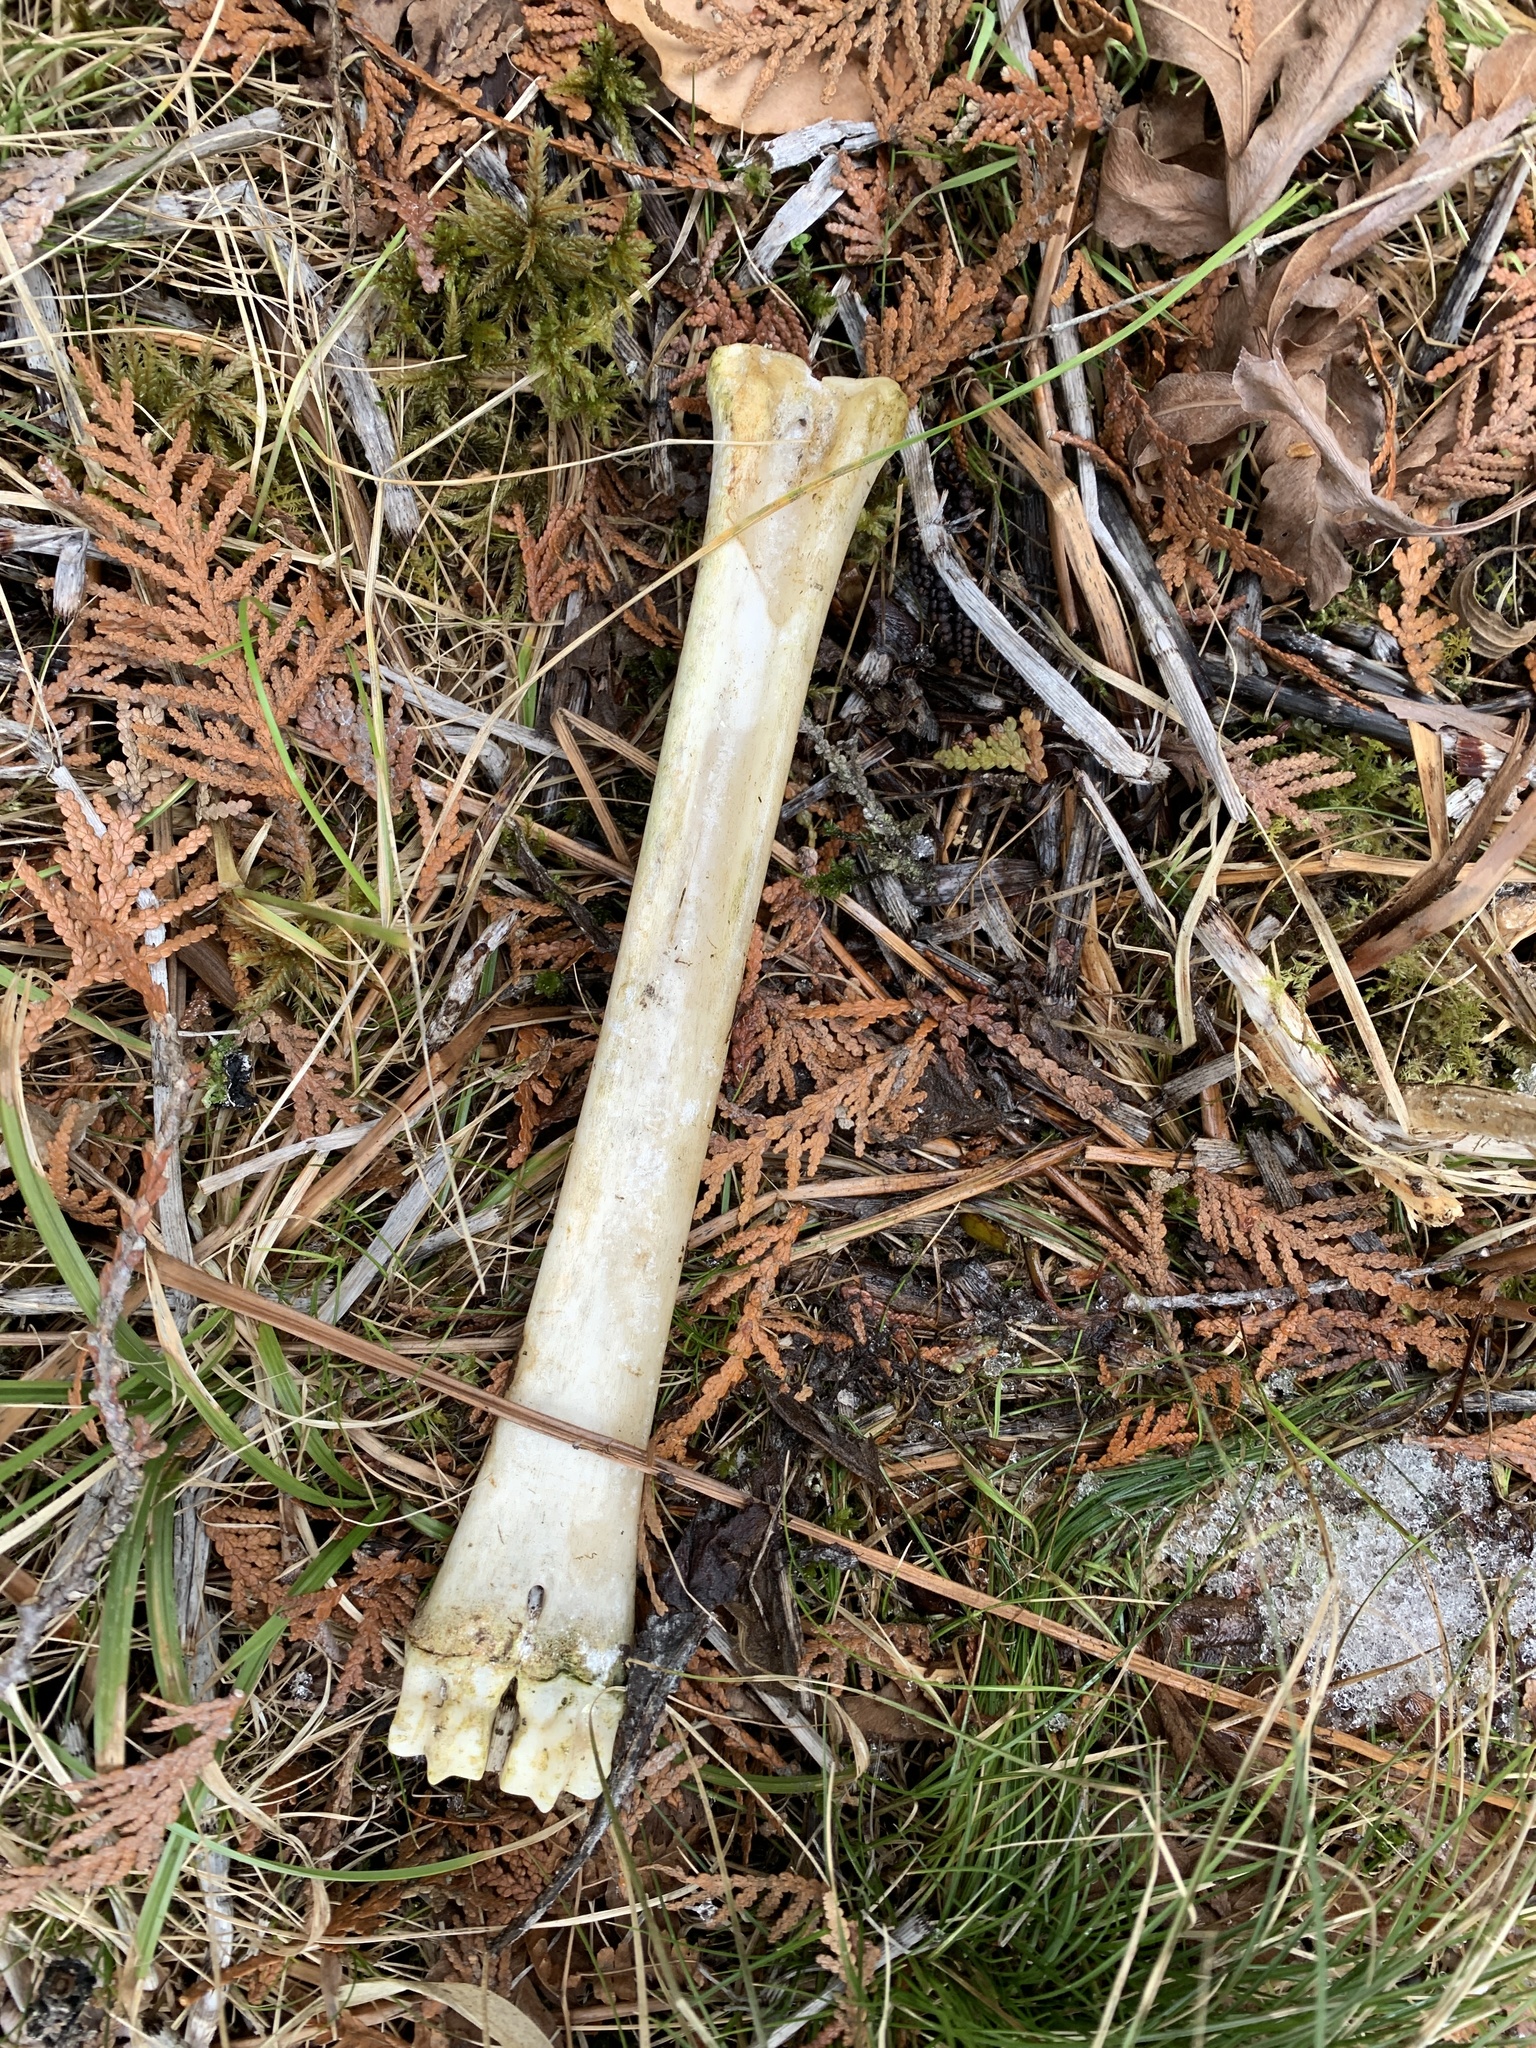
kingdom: Animalia
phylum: Chordata
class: Mammalia
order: Artiodactyla
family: Cervidae
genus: Odocoileus
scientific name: Odocoileus virginianus
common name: White-tailed deer
